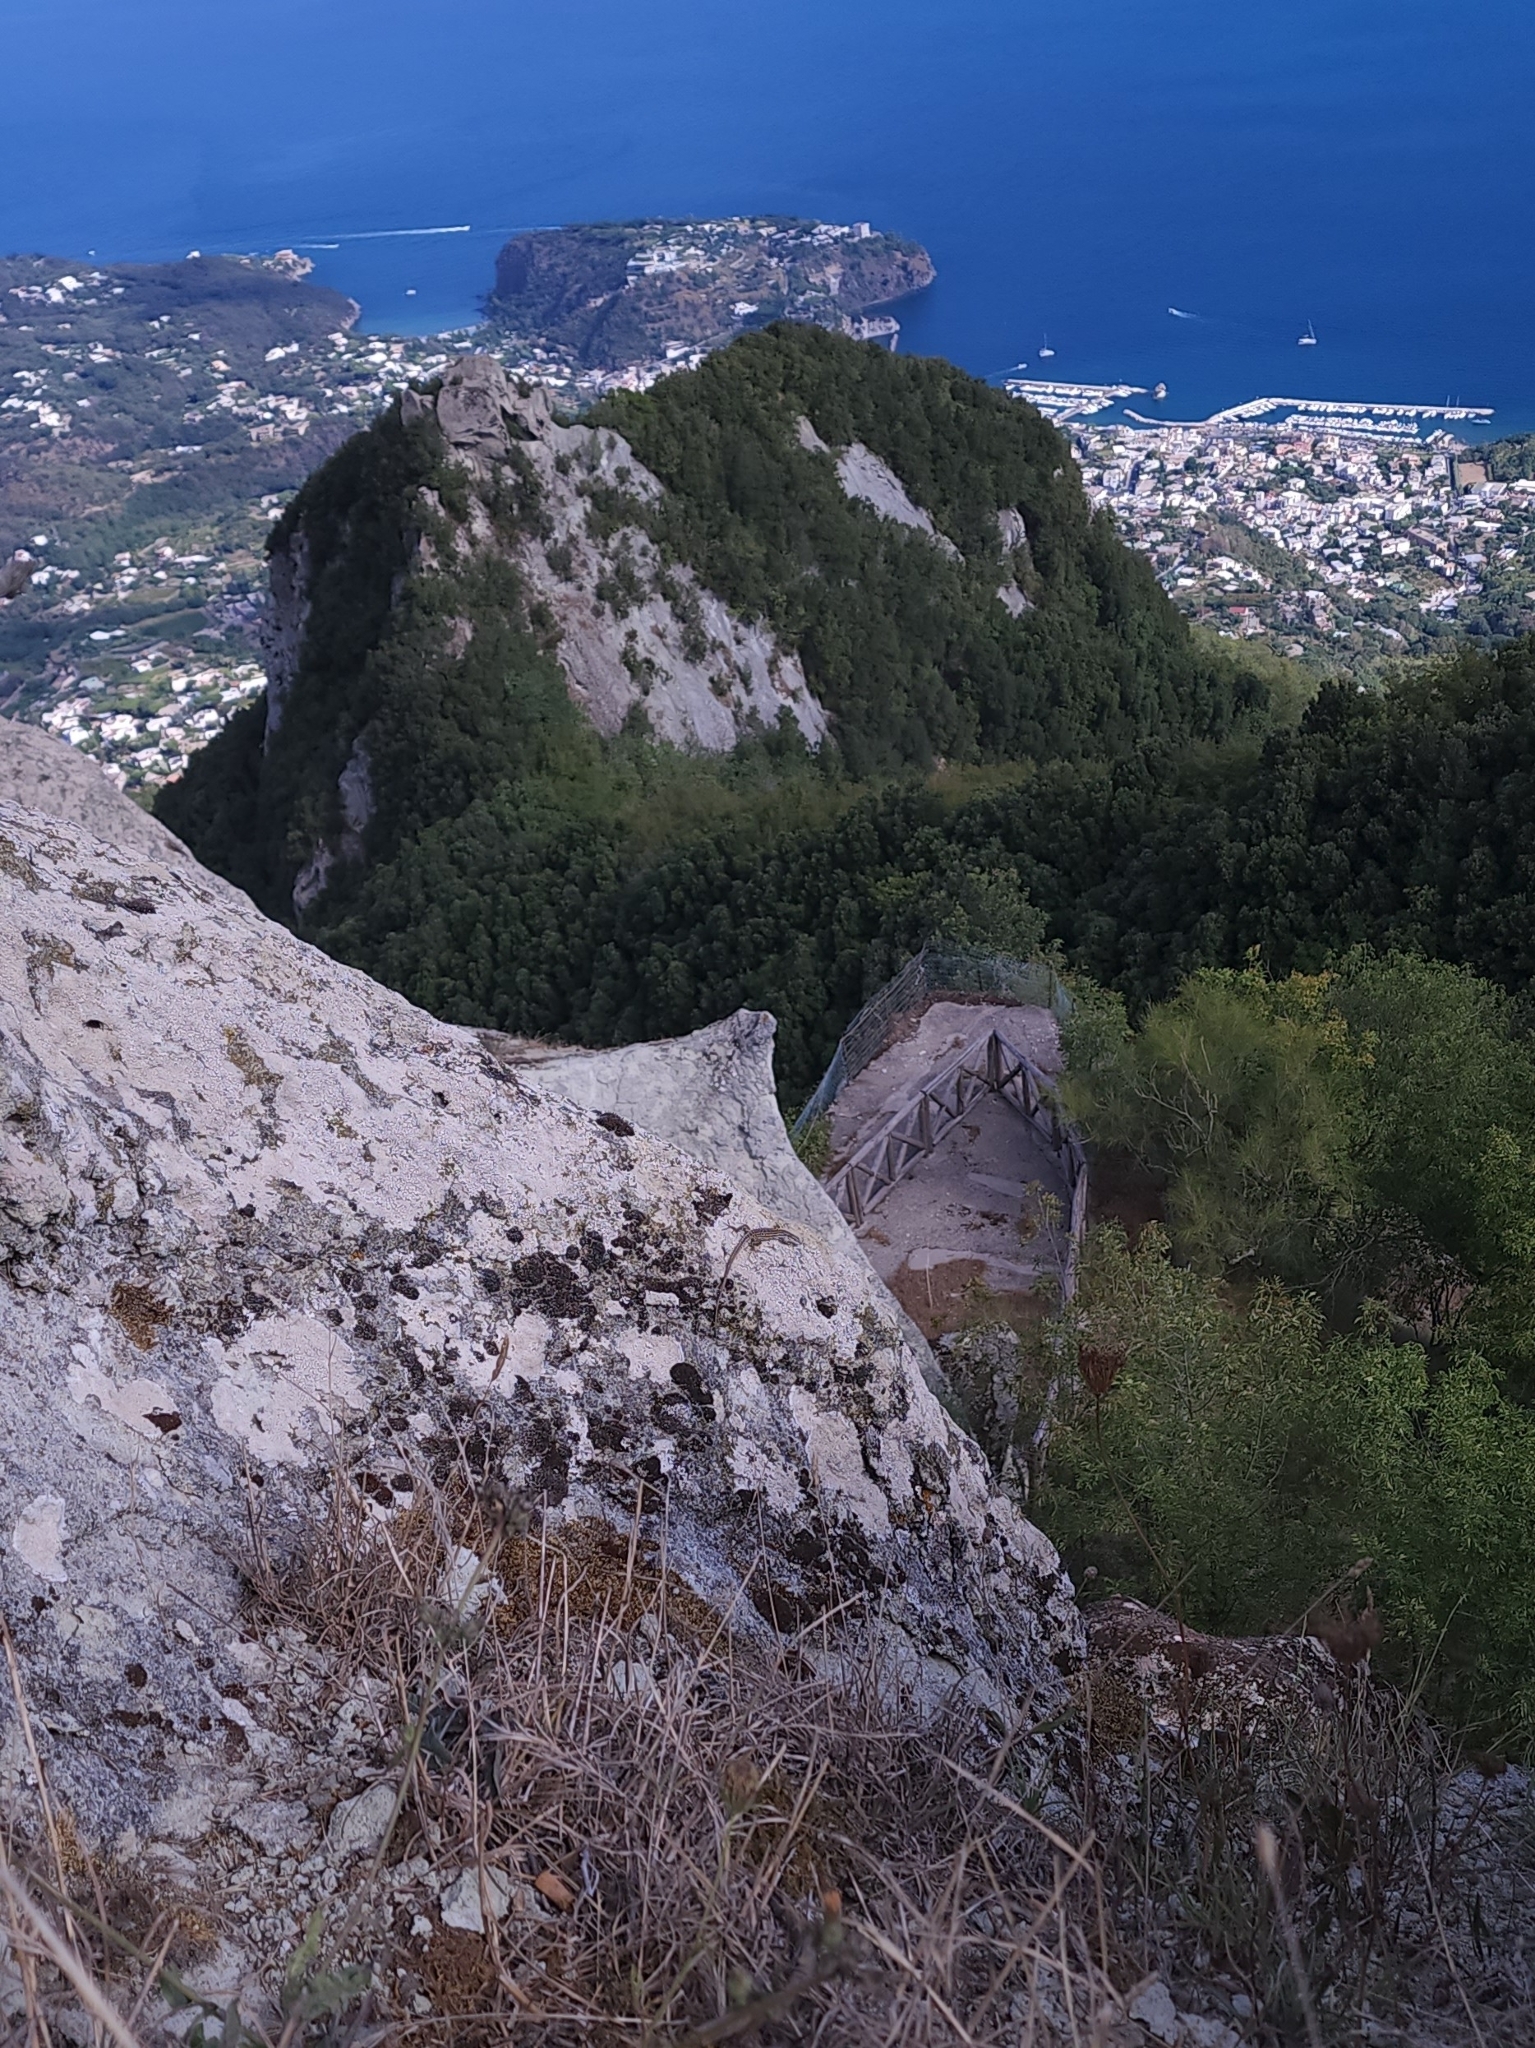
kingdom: Animalia
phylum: Chordata
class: Squamata
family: Lacertidae
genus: Podarcis
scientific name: Podarcis siculus
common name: Italian wall lizard
